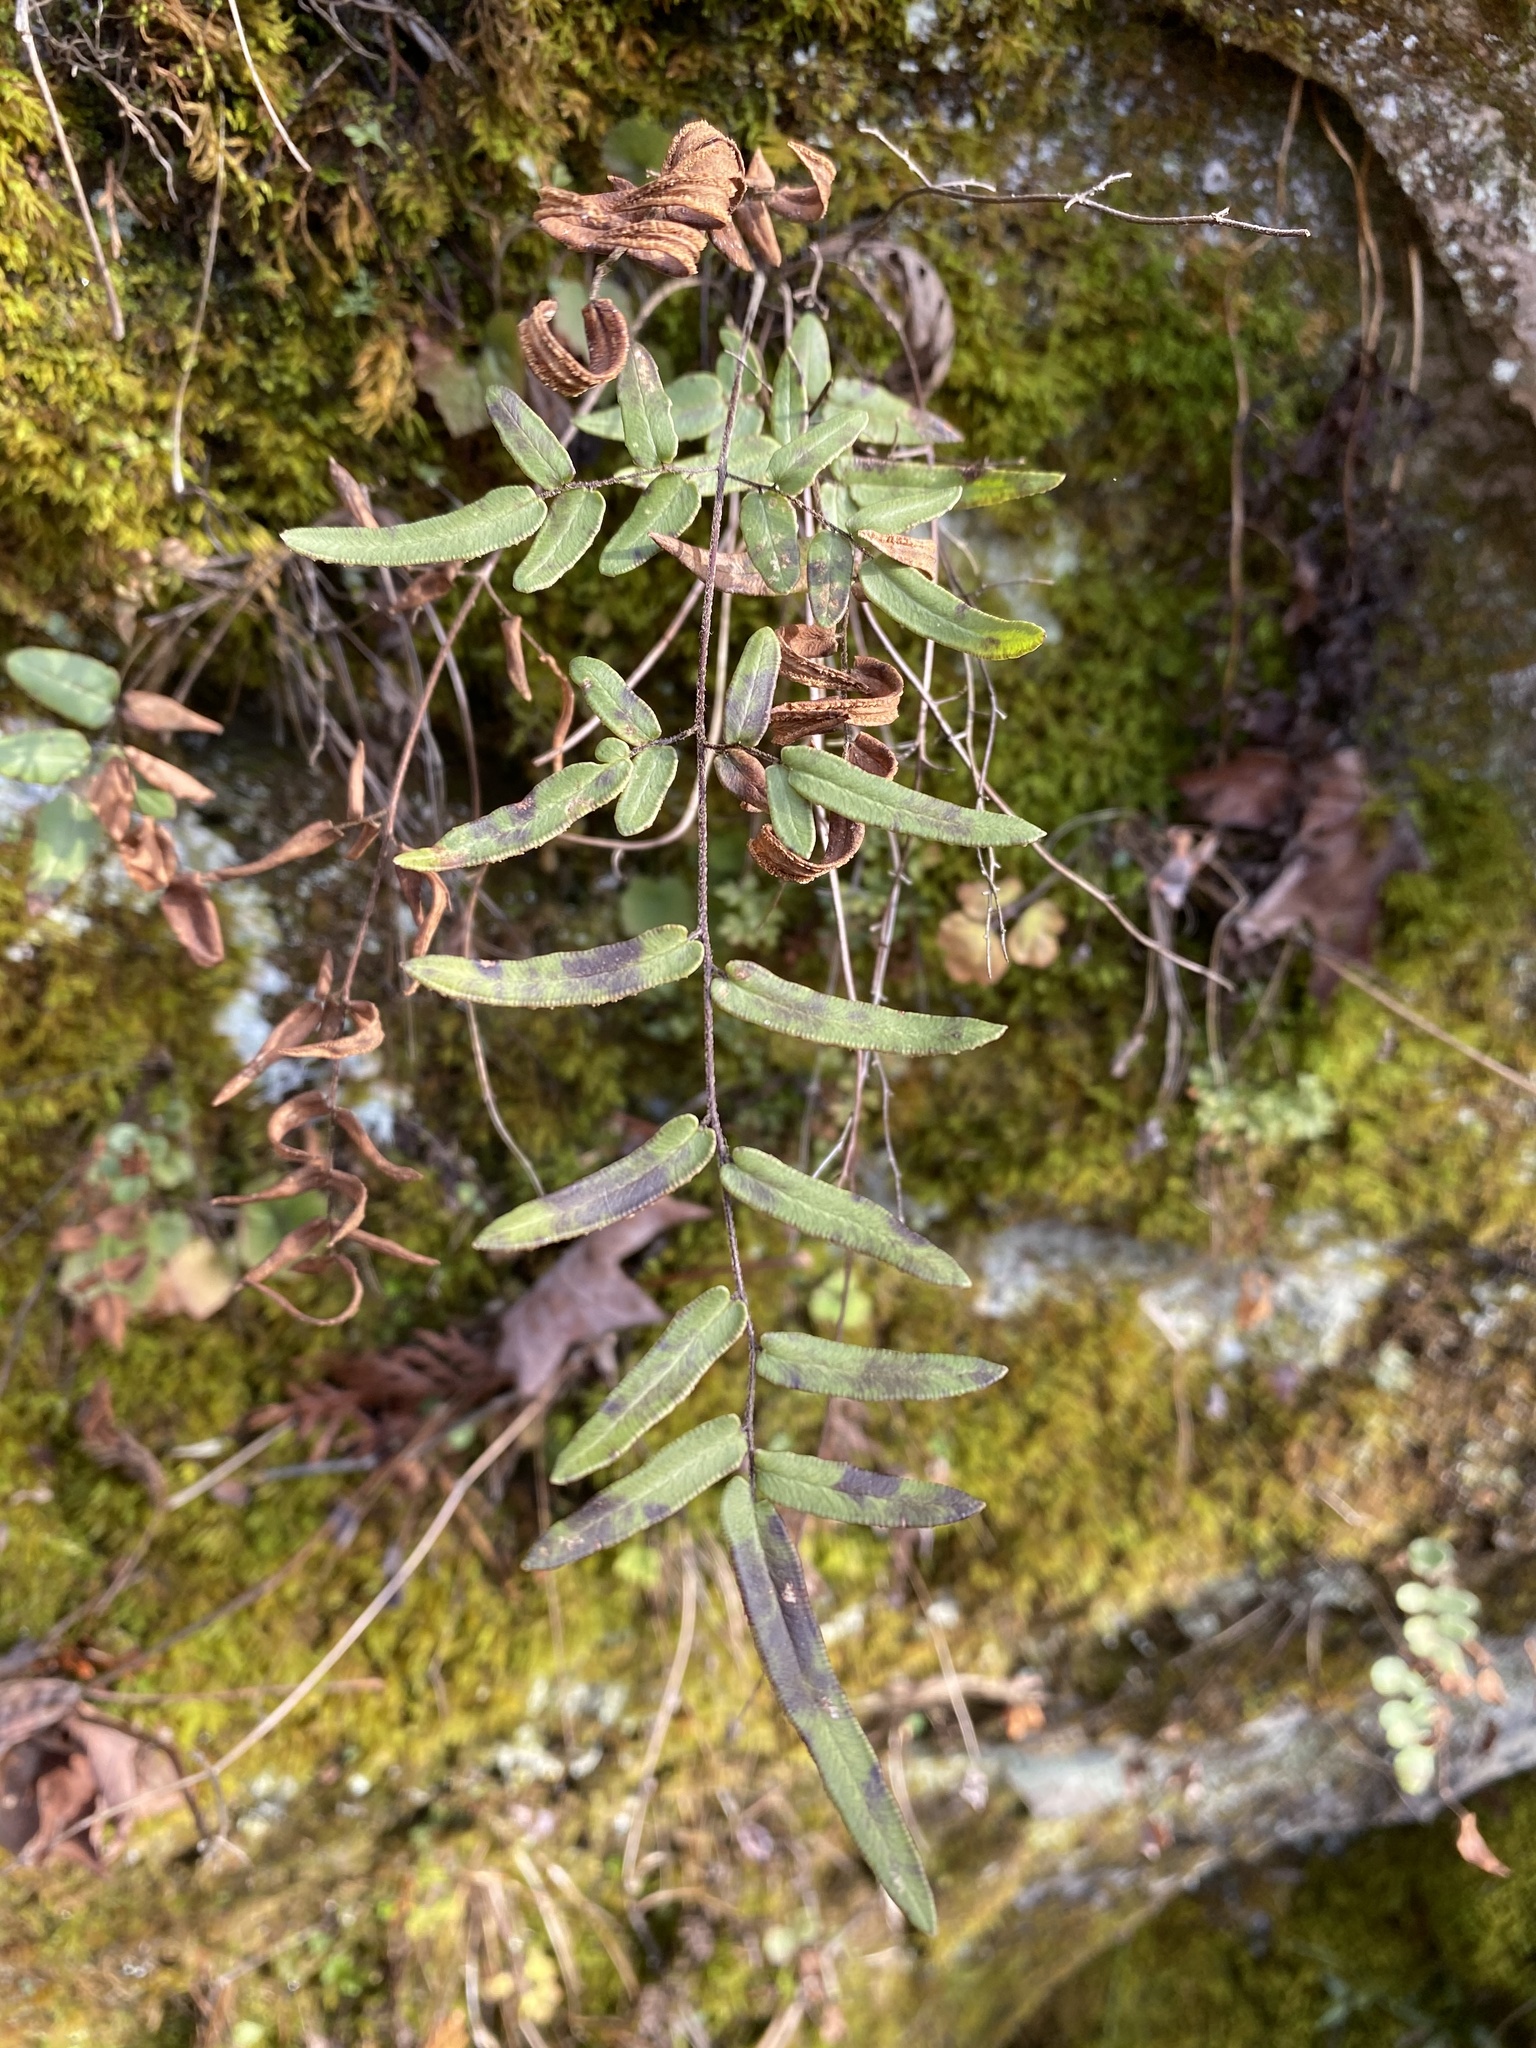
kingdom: Plantae
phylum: Tracheophyta
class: Polypodiopsida
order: Polypodiales
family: Pteridaceae
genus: Pellaea
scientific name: Pellaea atropurpurea
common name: Hairy cliffbrake
